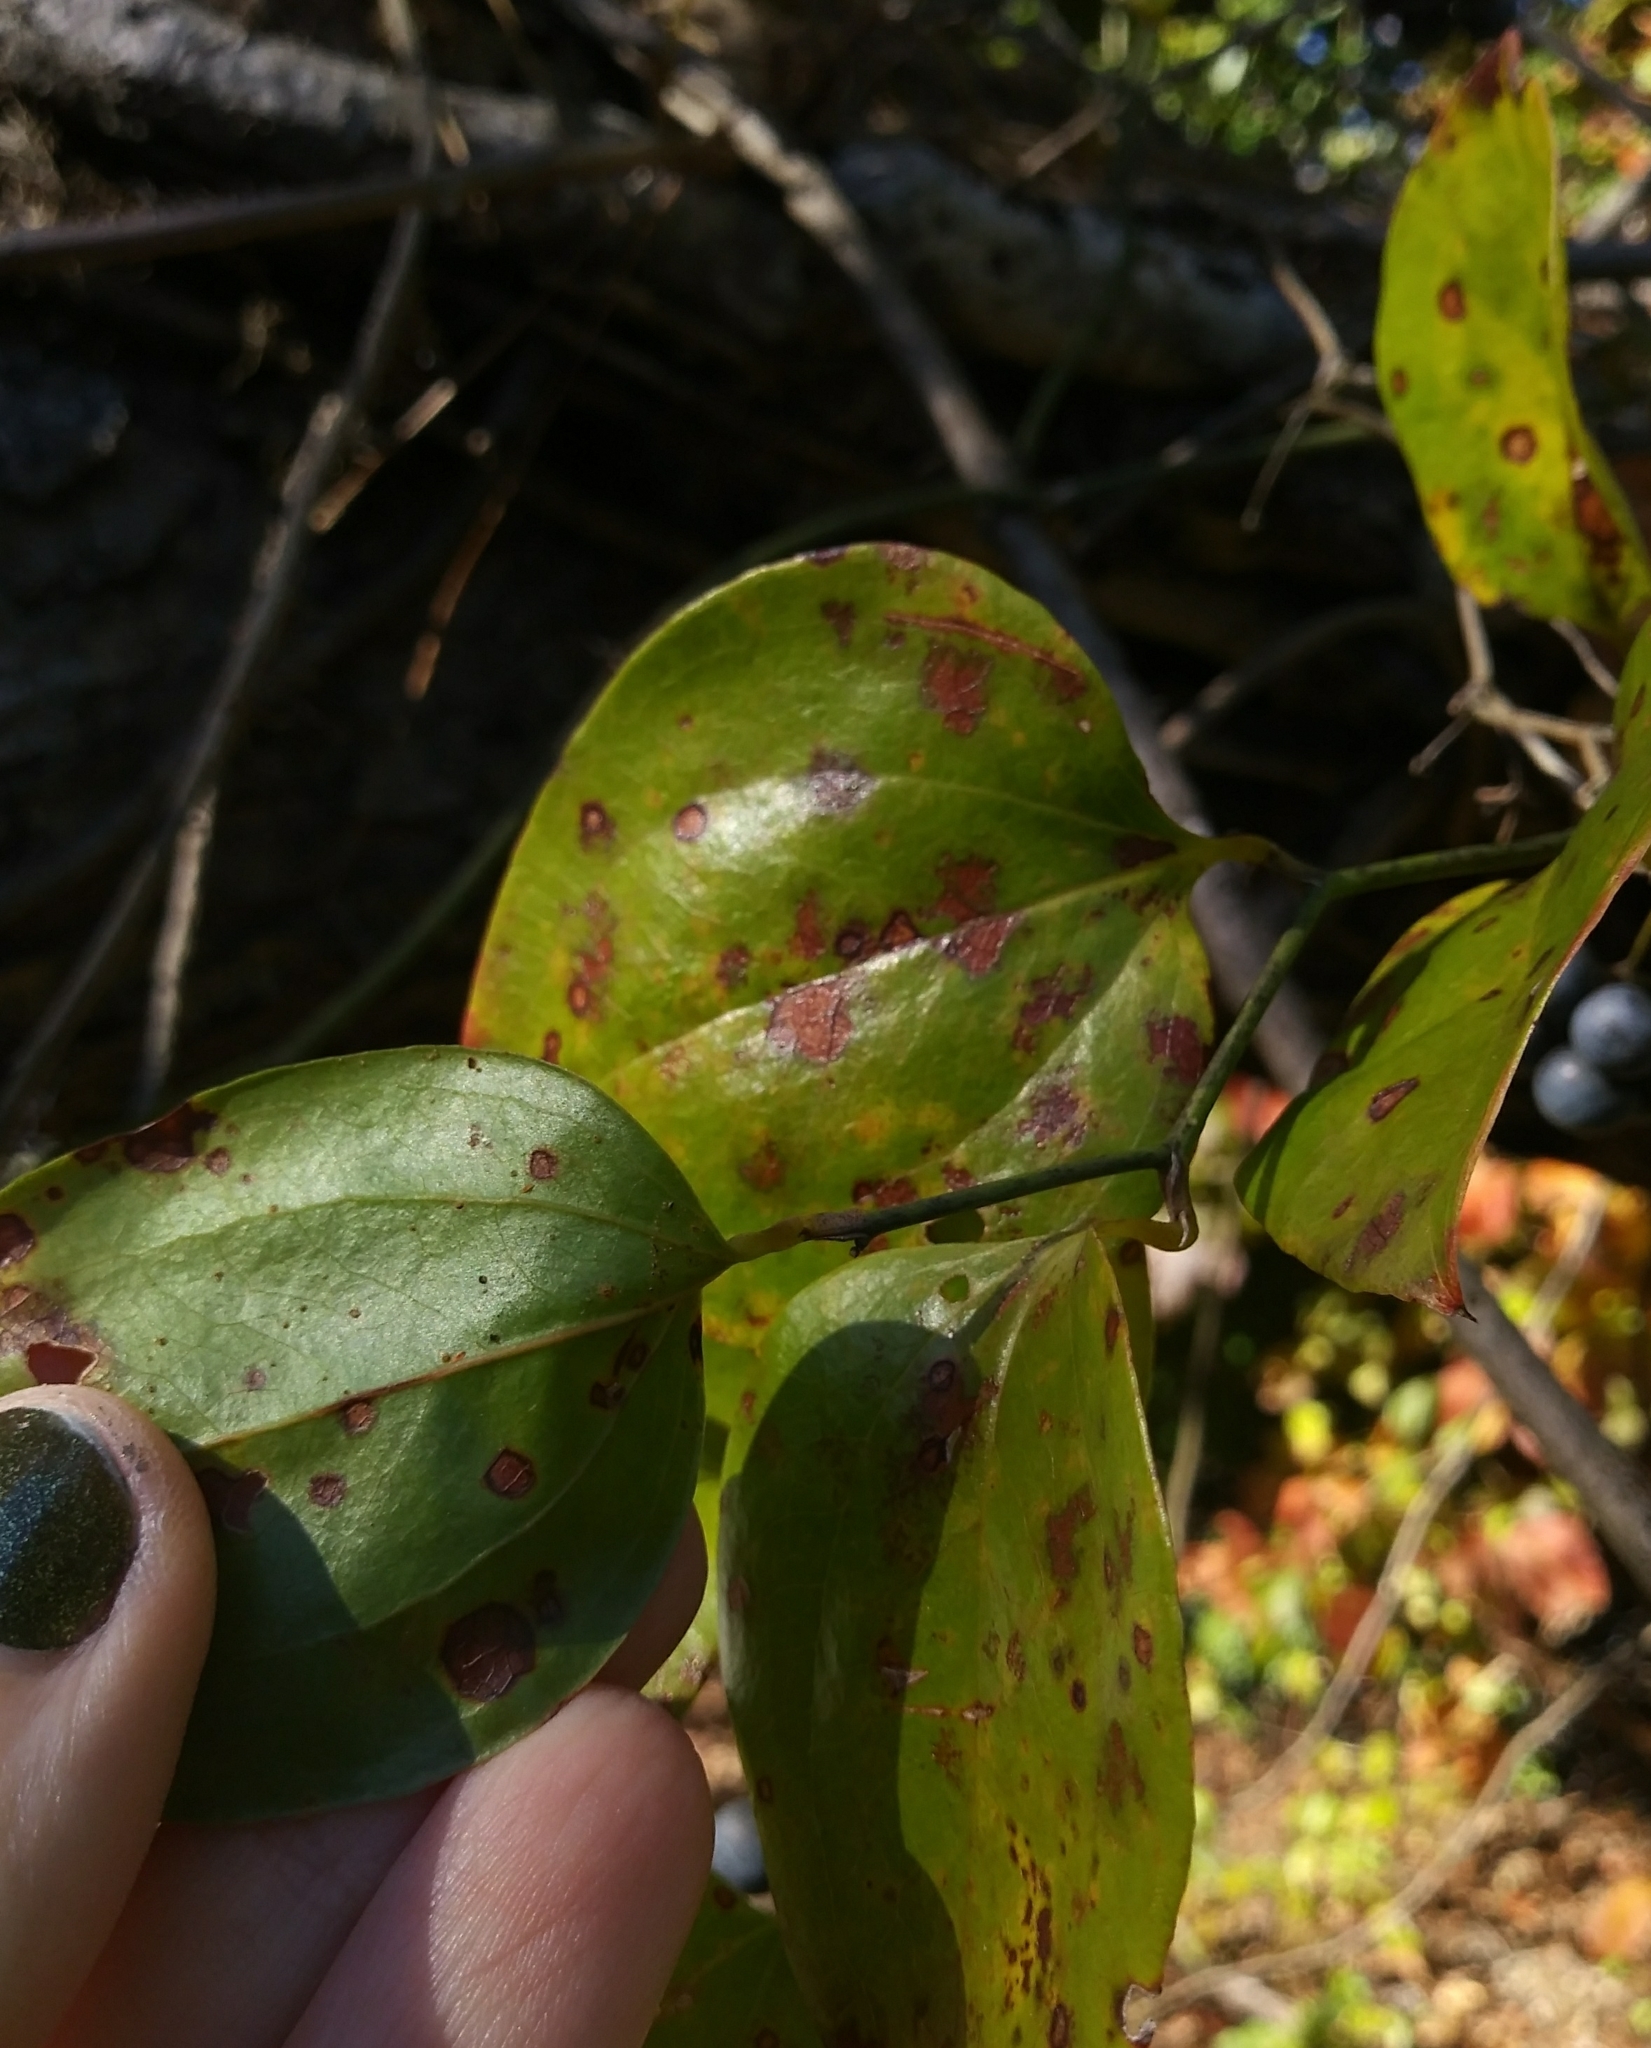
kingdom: Plantae
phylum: Tracheophyta
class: Liliopsida
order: Liliales
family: Smilacaceae
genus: Smilax
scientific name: Smilax rotundifolia
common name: Bullbriar
